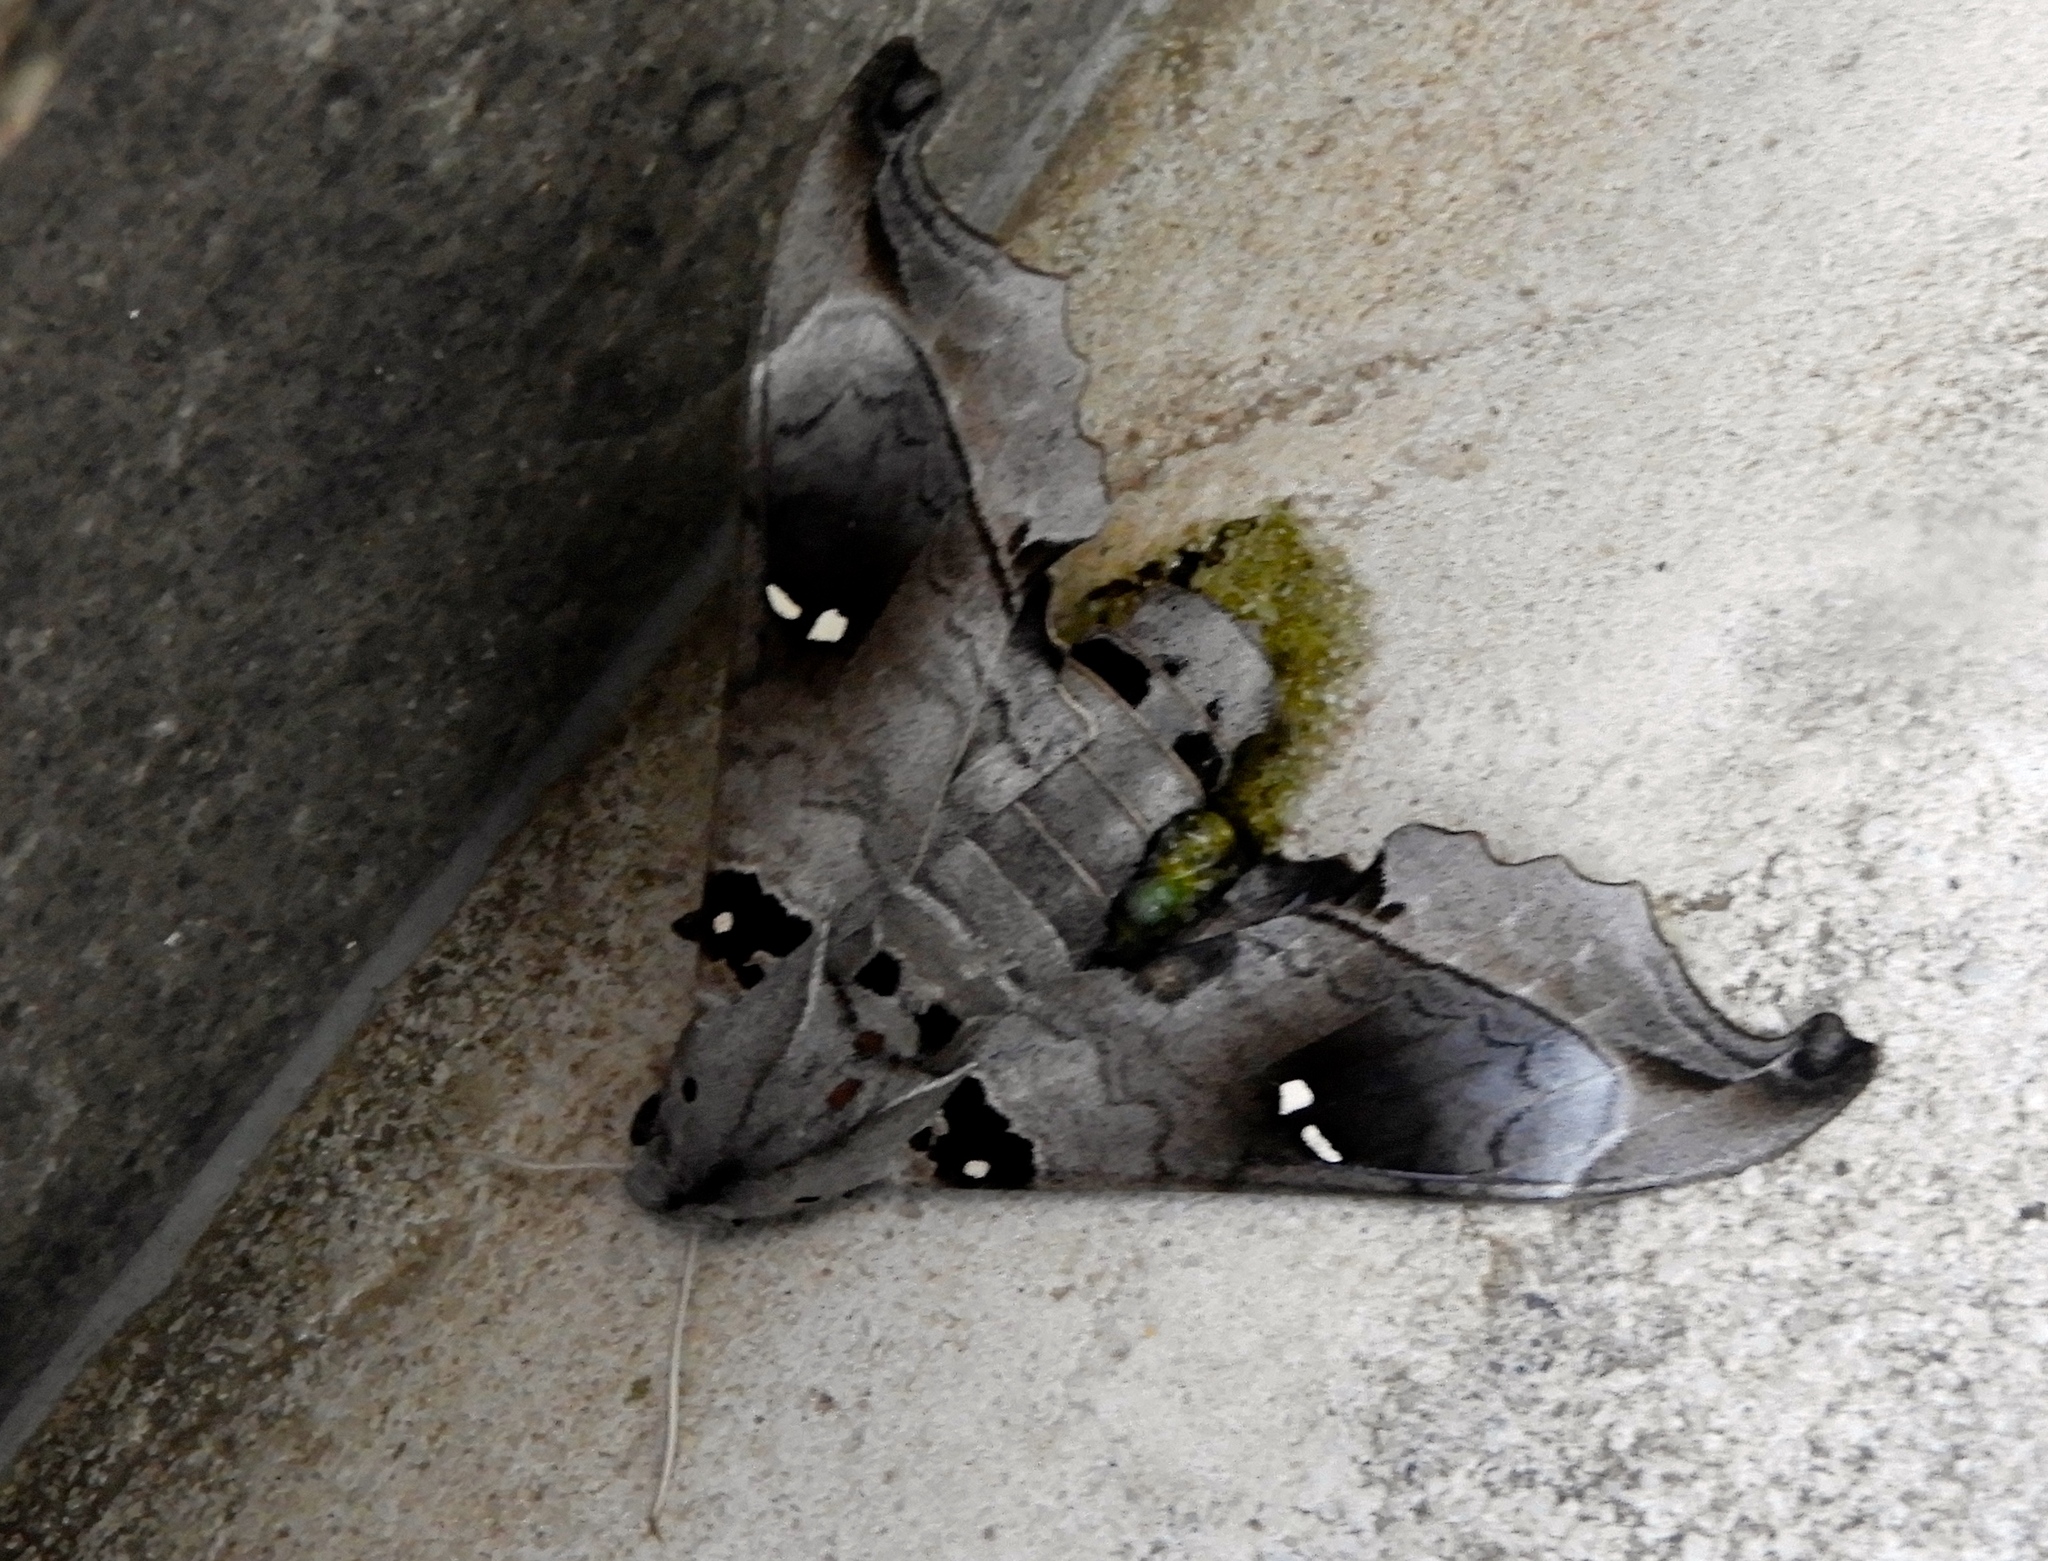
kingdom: Animalia
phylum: Arthropoda
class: Insecta
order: Lepidoptera
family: Sphingidae
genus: Madoryx
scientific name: Madoryx oiclus
